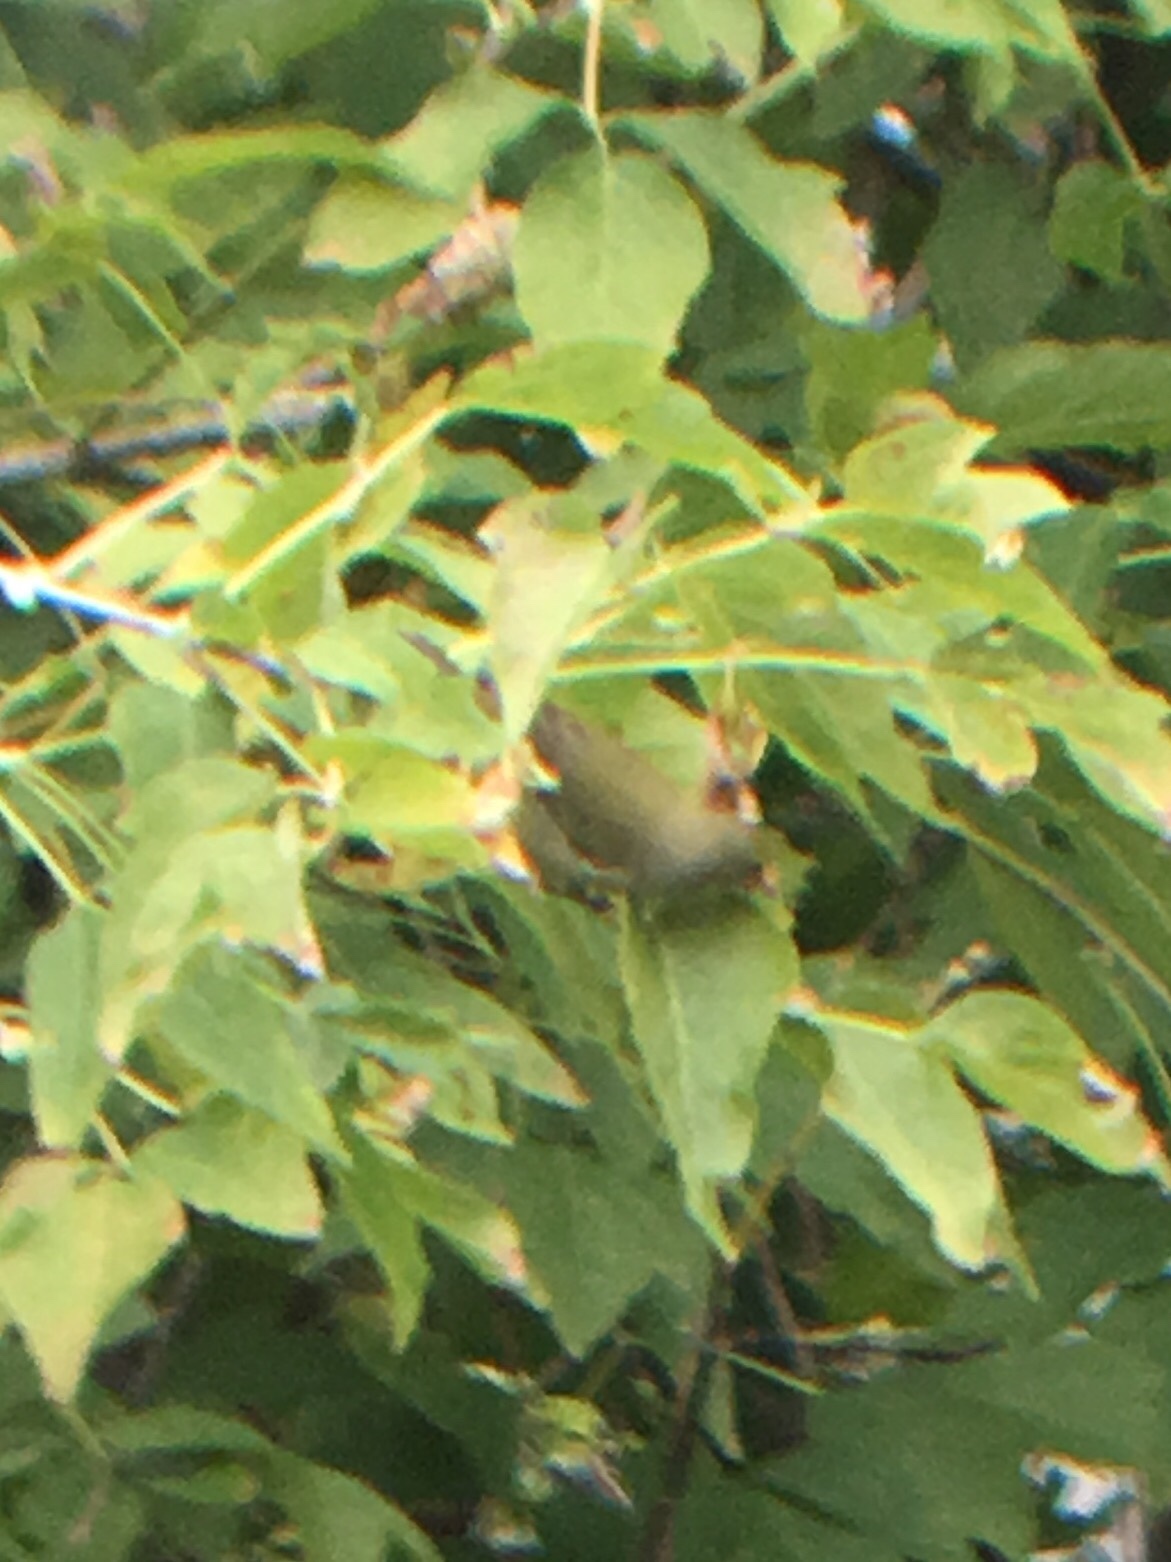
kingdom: Animalia
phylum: Chordata
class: Aves
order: Passeriformes
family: Parulidae
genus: Leiothlypis
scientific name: Leiothlypis peregrina
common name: Tennessee warbler
